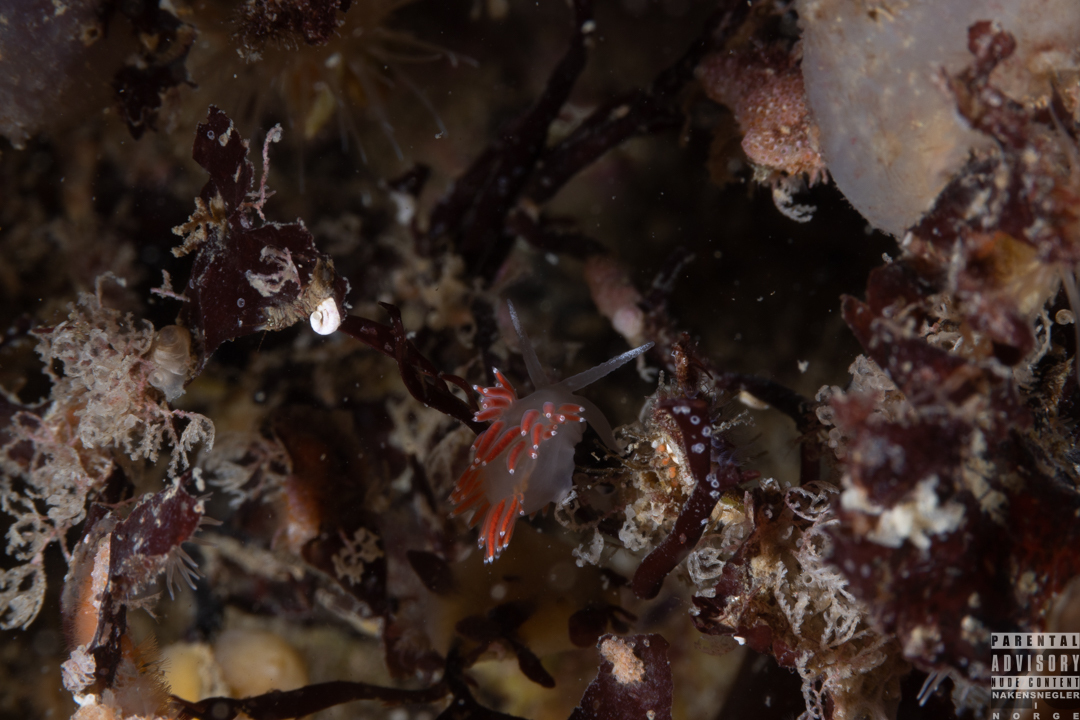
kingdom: Animalia
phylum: Mollusca
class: Gastropoda
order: Nudibranchia
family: Coryphellidae
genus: Coryphella
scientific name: Coryphella gracilis
